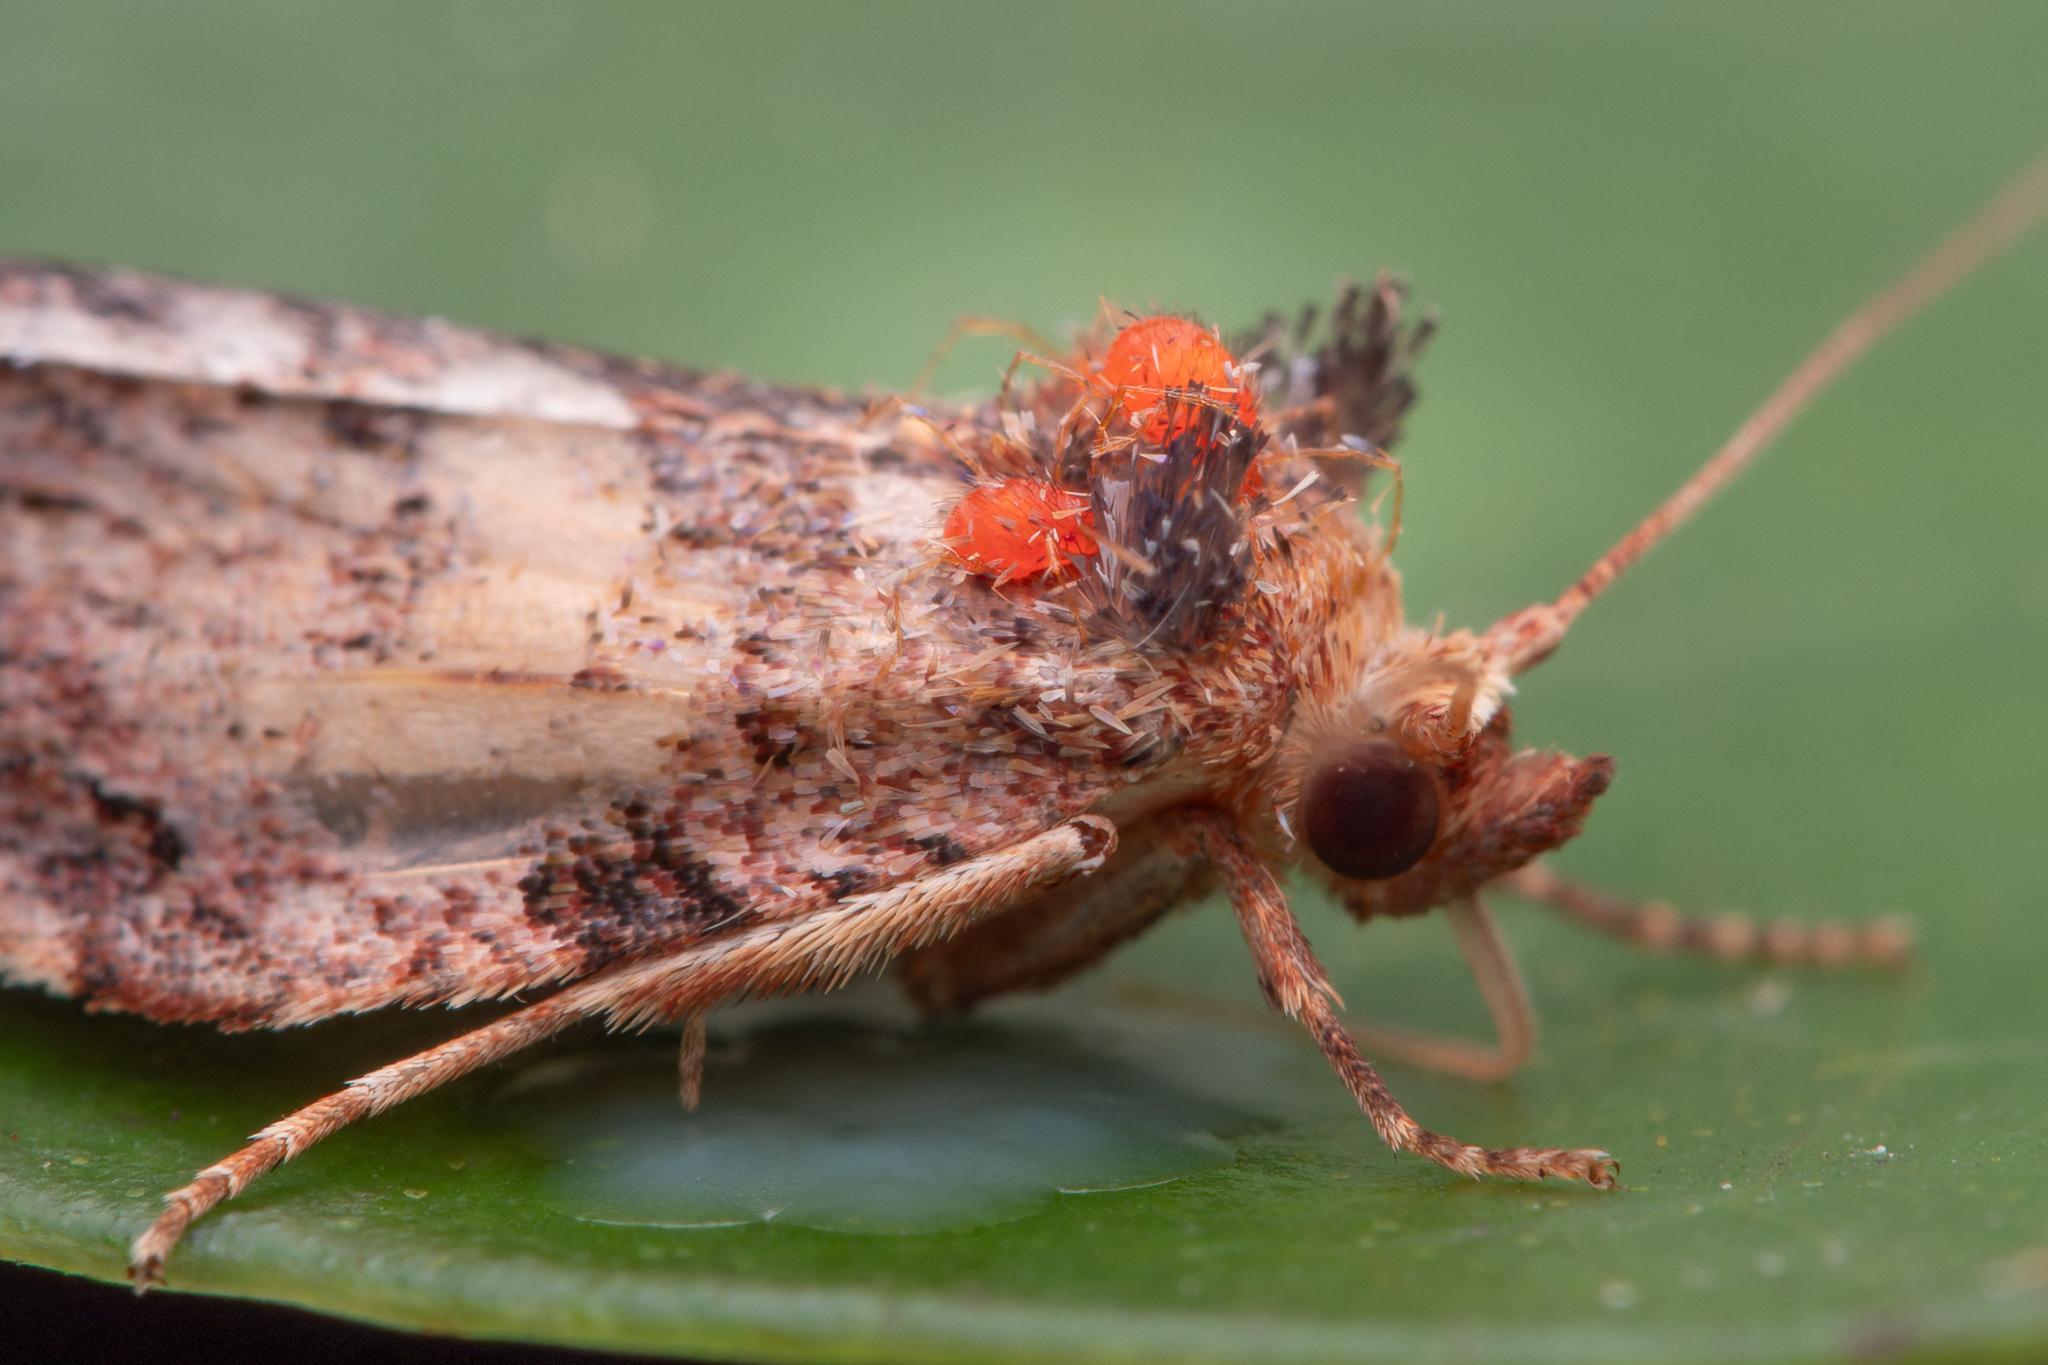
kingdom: Animalia
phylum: Arthropoda
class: Insecta
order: Lepidoptera
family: Tortricidae
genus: Epalxiphora
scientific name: Epalxiphora axenana
